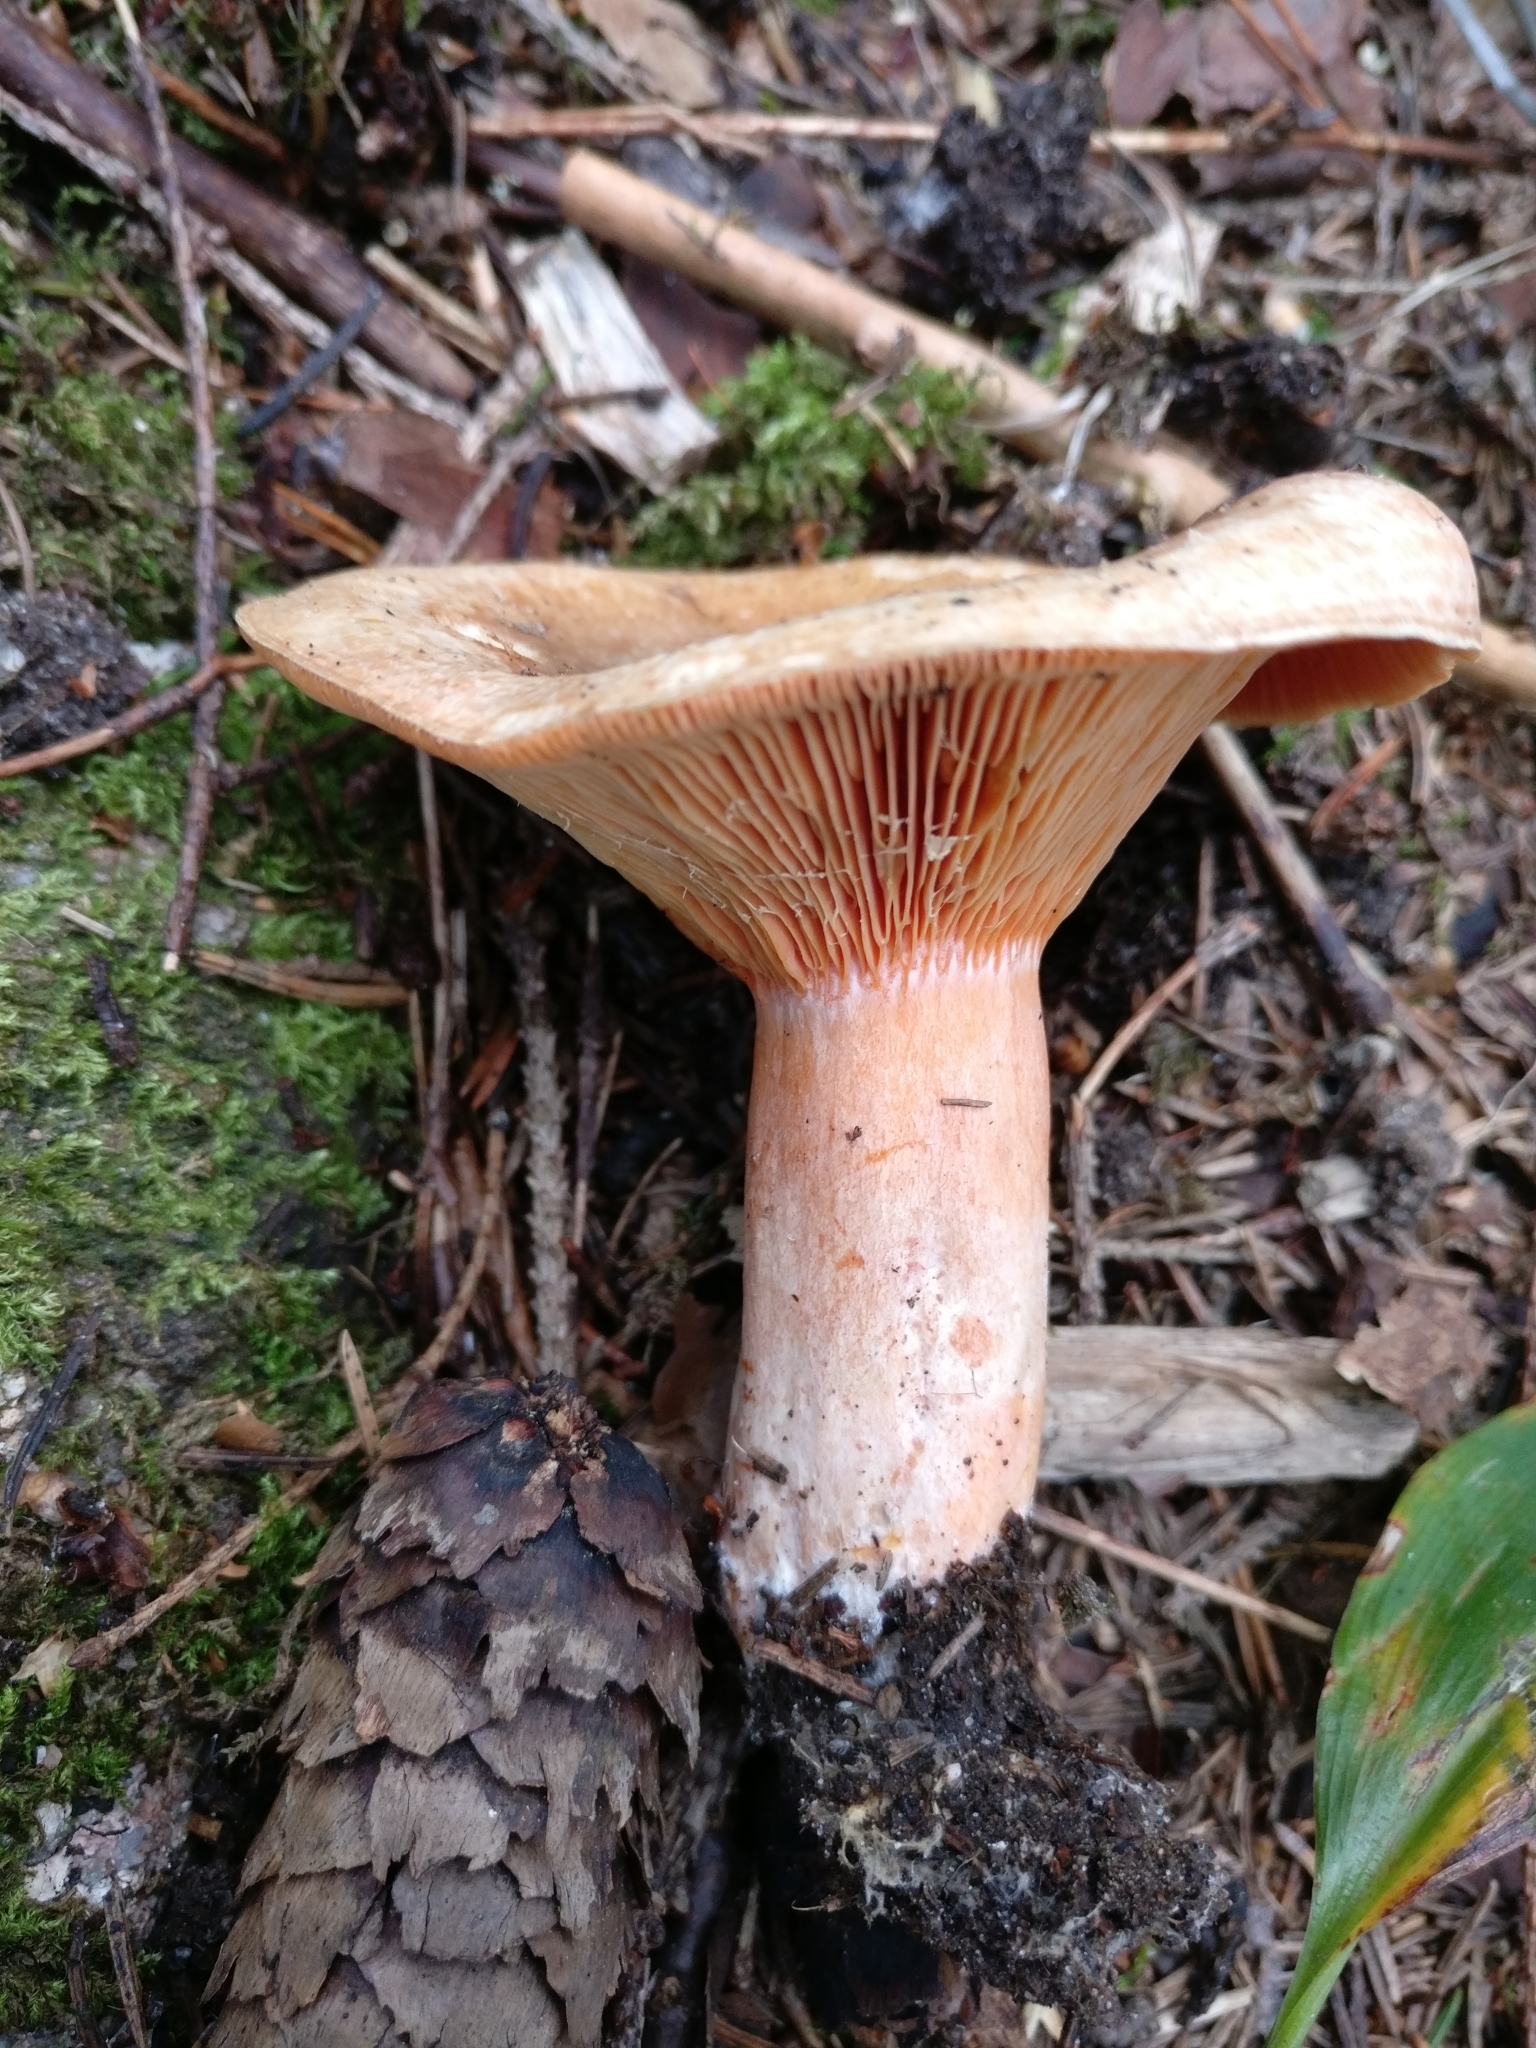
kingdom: Fungi
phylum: Basidiomycota
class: Agaricomycetes
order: Russulales
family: Russulaceae
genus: Lactarius
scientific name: Lactarius deterrimus
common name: False saffron milkcap
